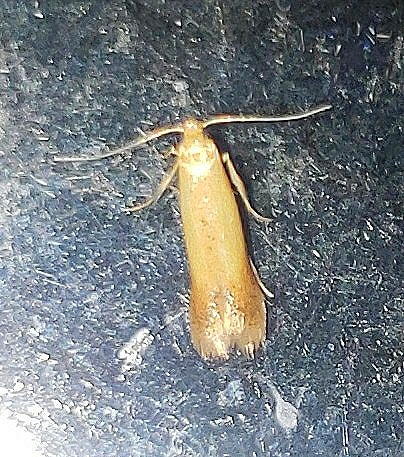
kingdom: Animalia
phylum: Arthropoda
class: Insecta
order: Lepidoptera
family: Tischeriidae
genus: Coptotriche
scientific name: Coptotriche citrinipennella
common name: The golden sweeper
